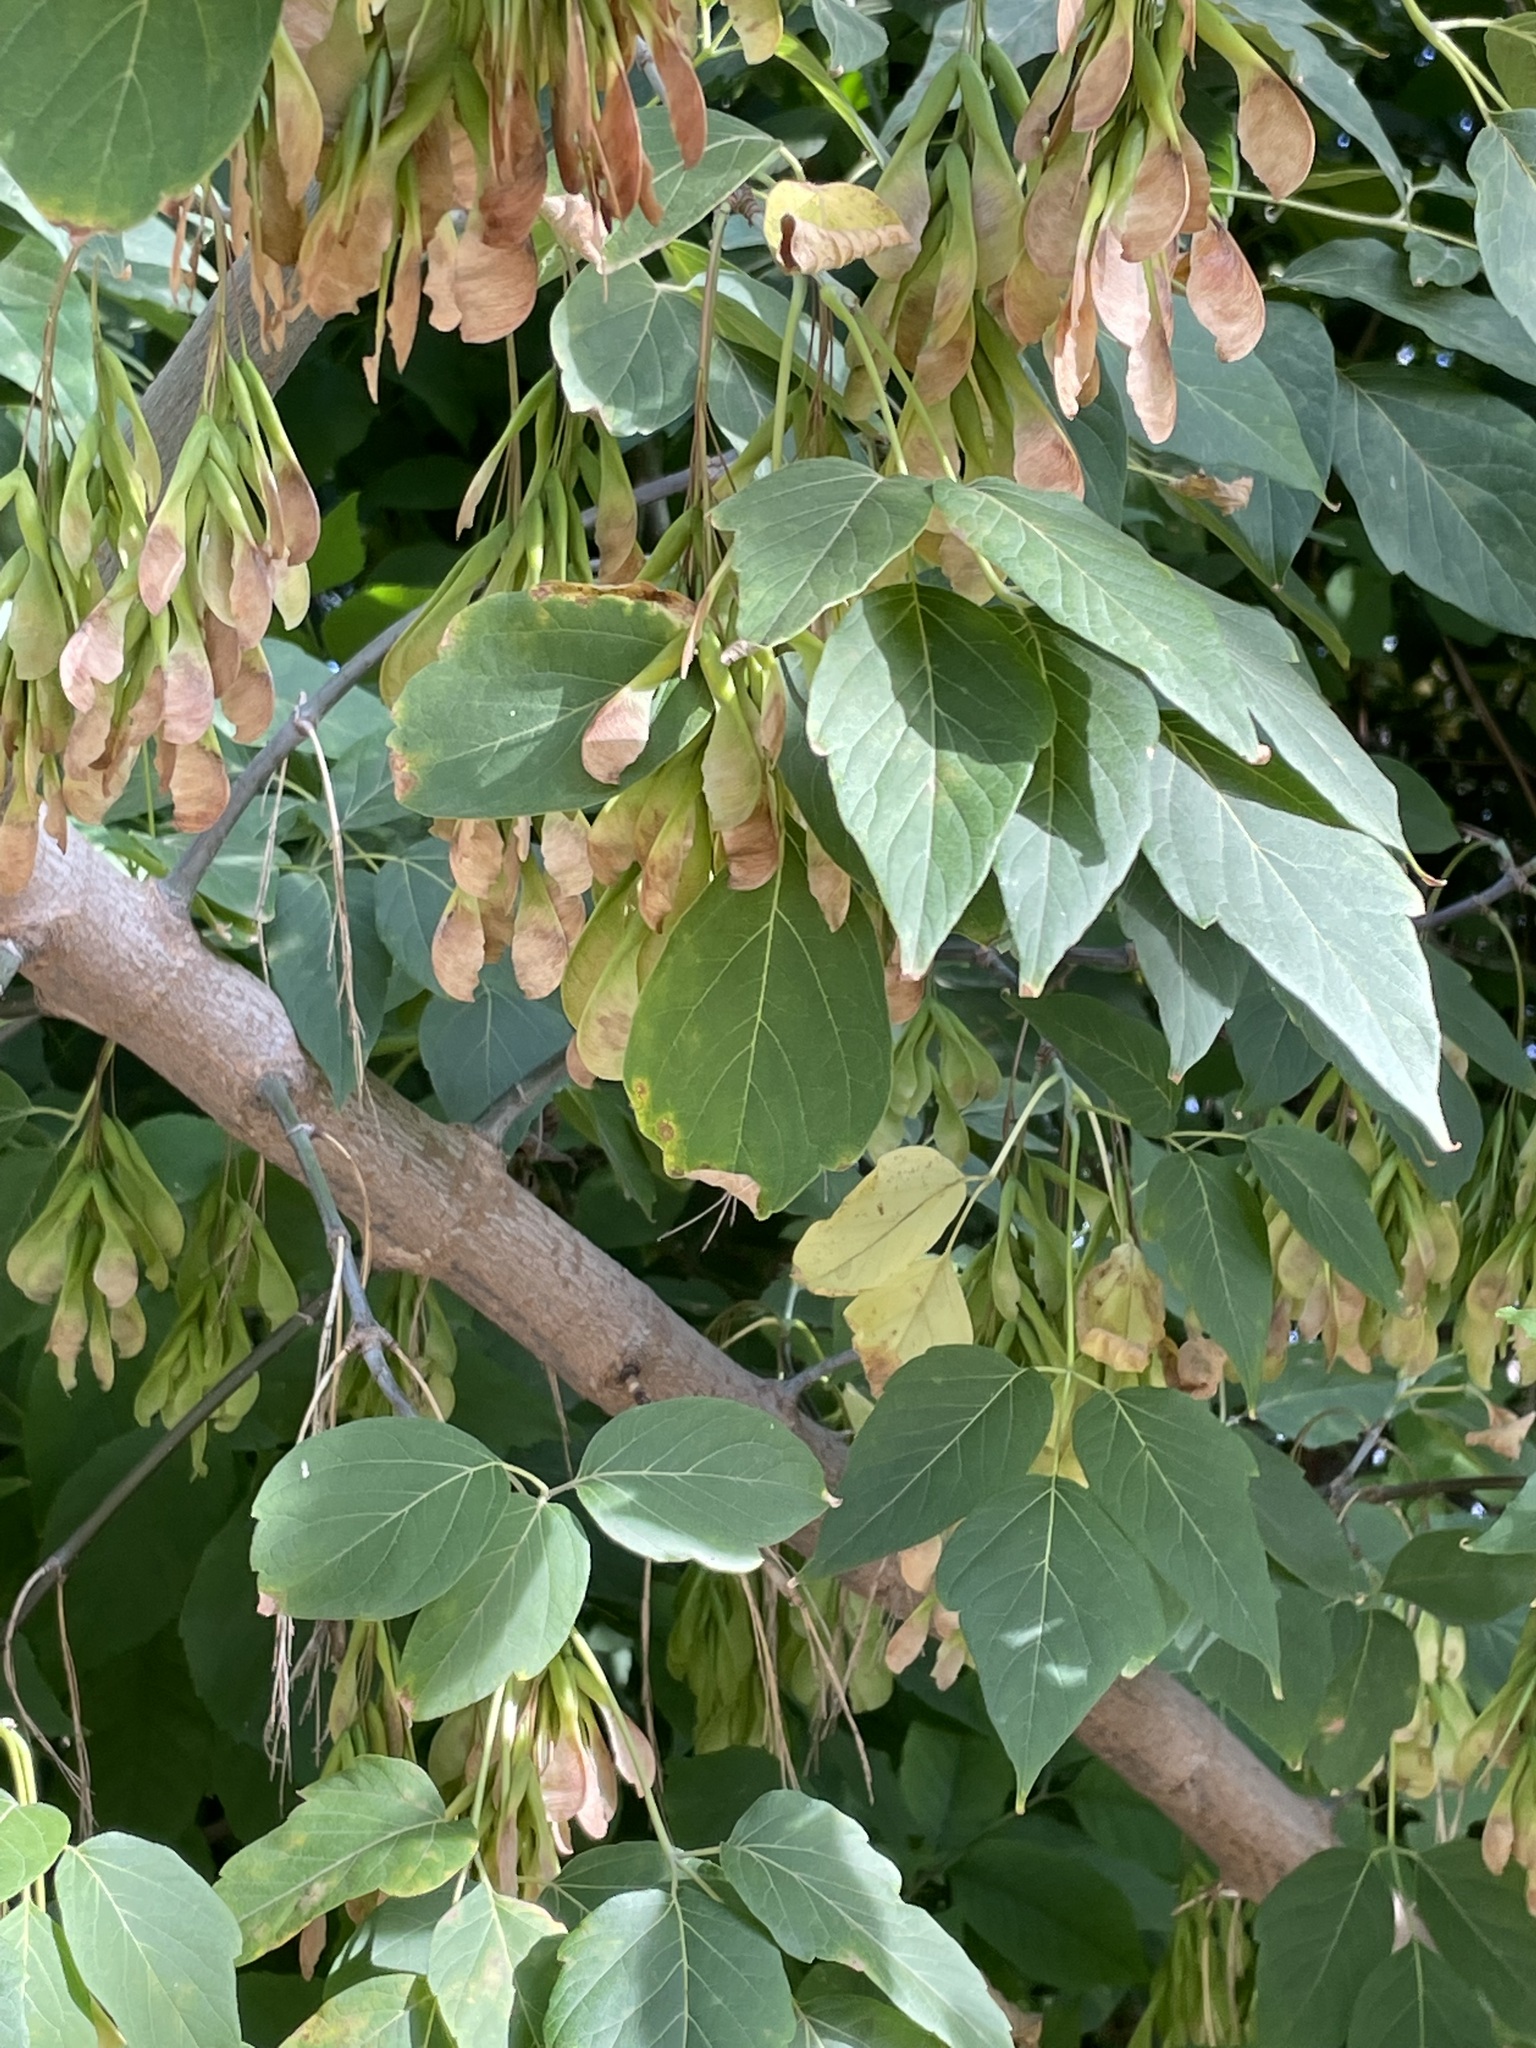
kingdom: Plantae
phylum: Tracheophyta
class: Magnoliopsida
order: Sapindales
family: Sapindaceae
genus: Acer
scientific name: Acer negundo
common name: Ashleaf maple
